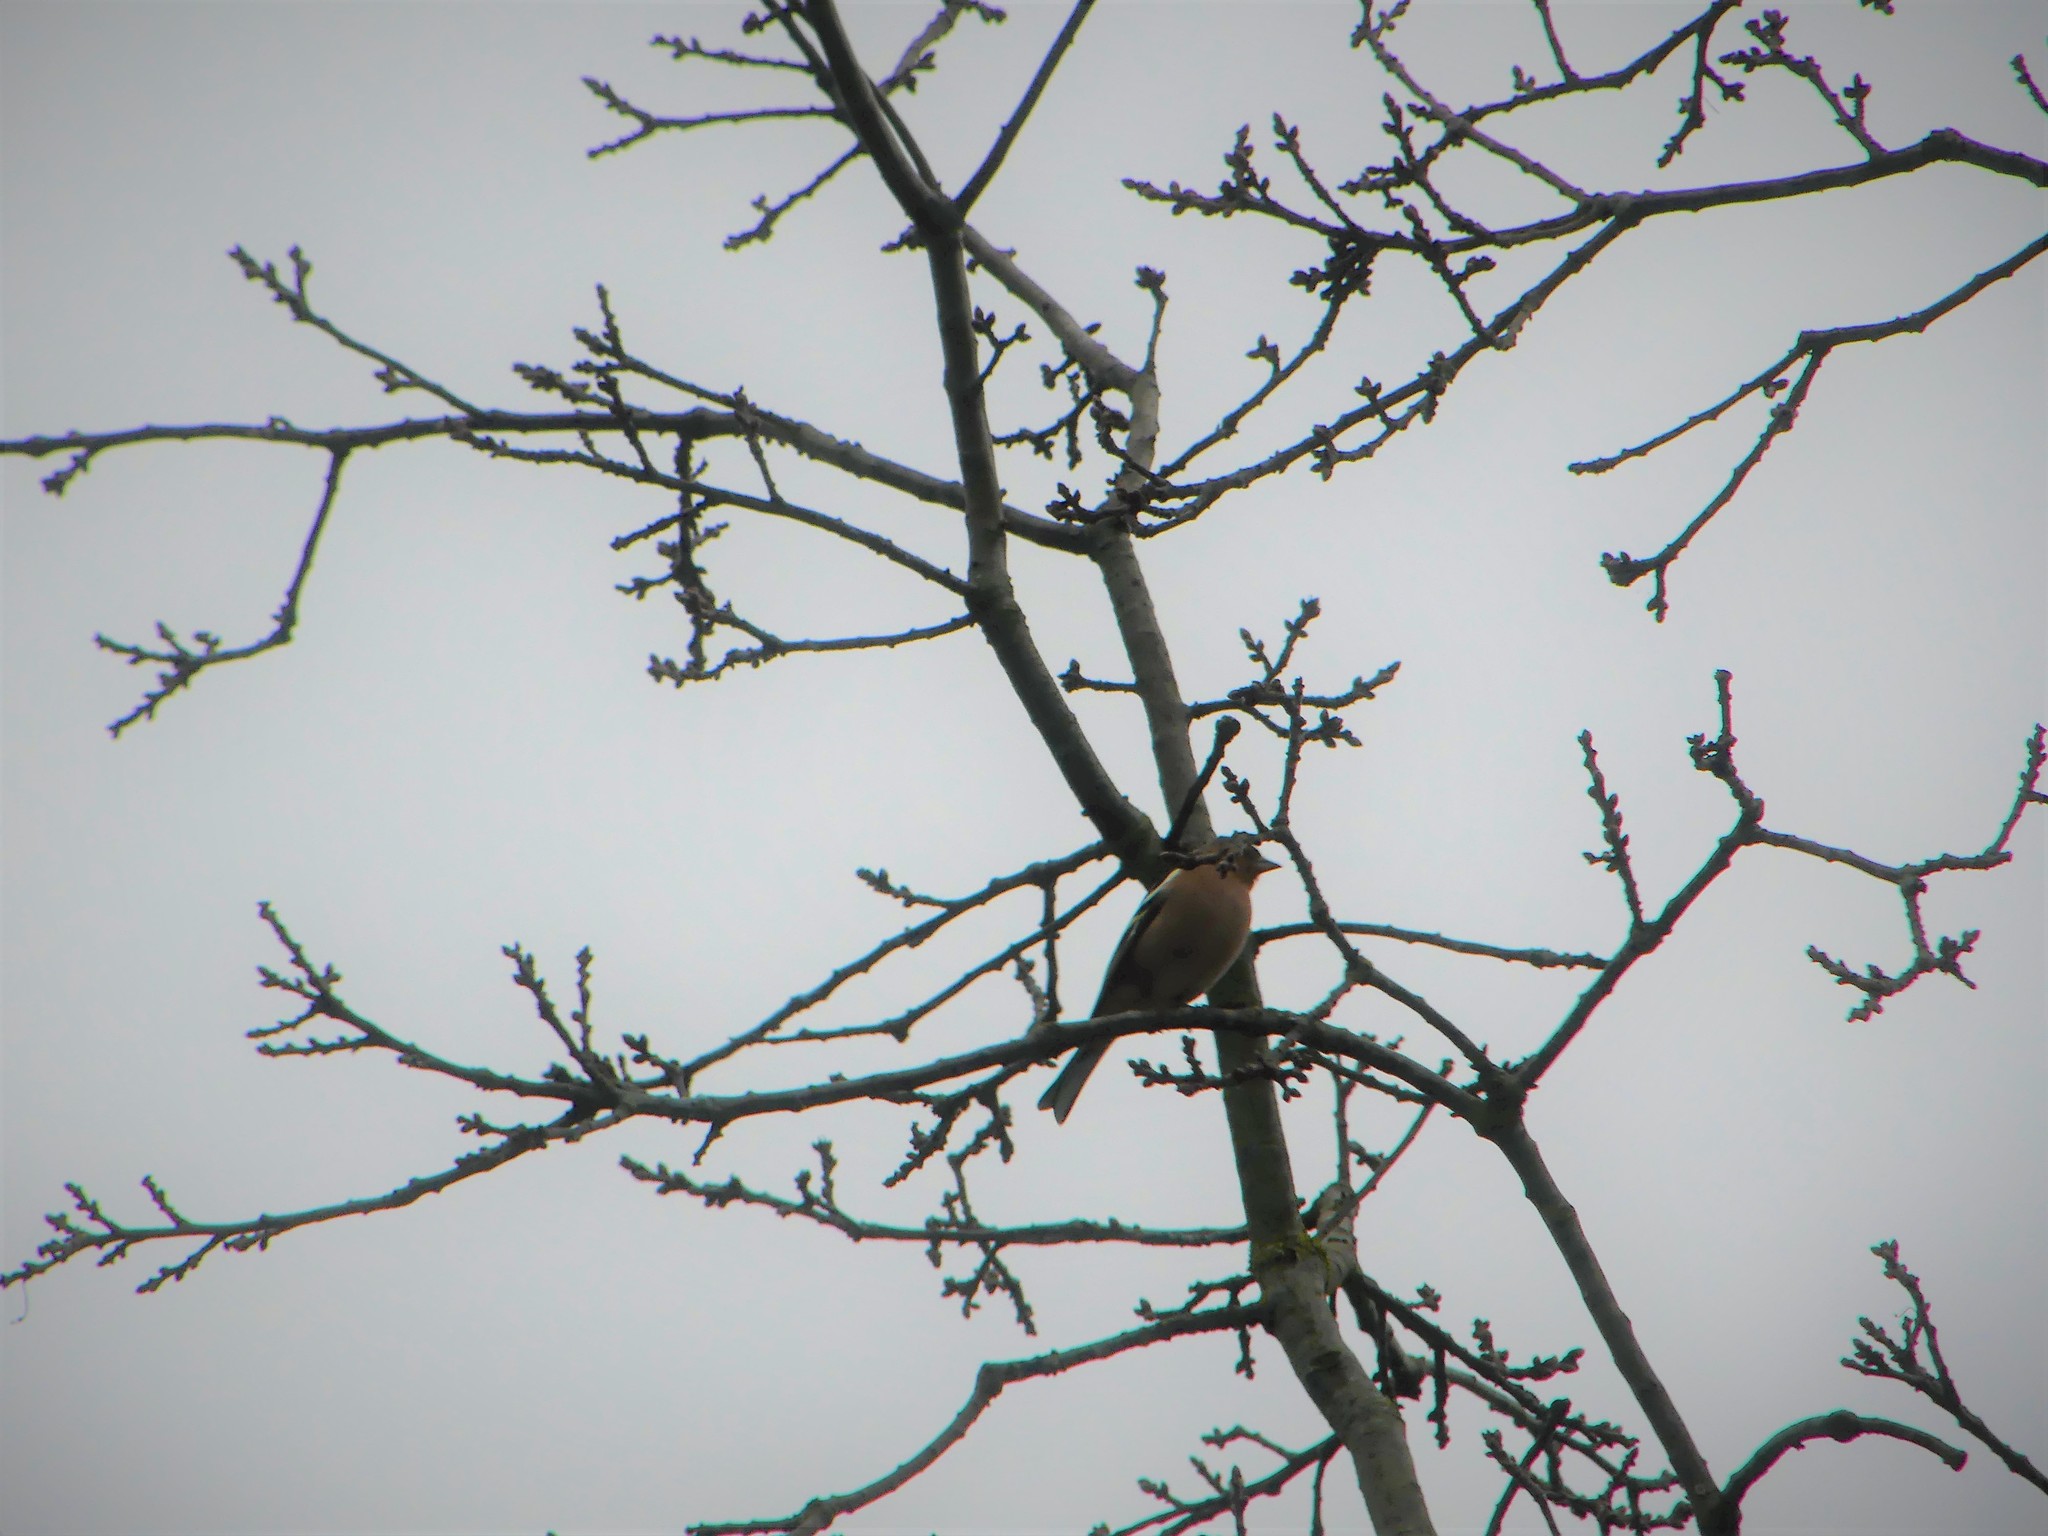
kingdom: Animalia
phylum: Chordata
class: Aves
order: Passeriformes
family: Fringillidae
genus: Fringilla
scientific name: Fringilla coelebs
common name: Common chaffinch
